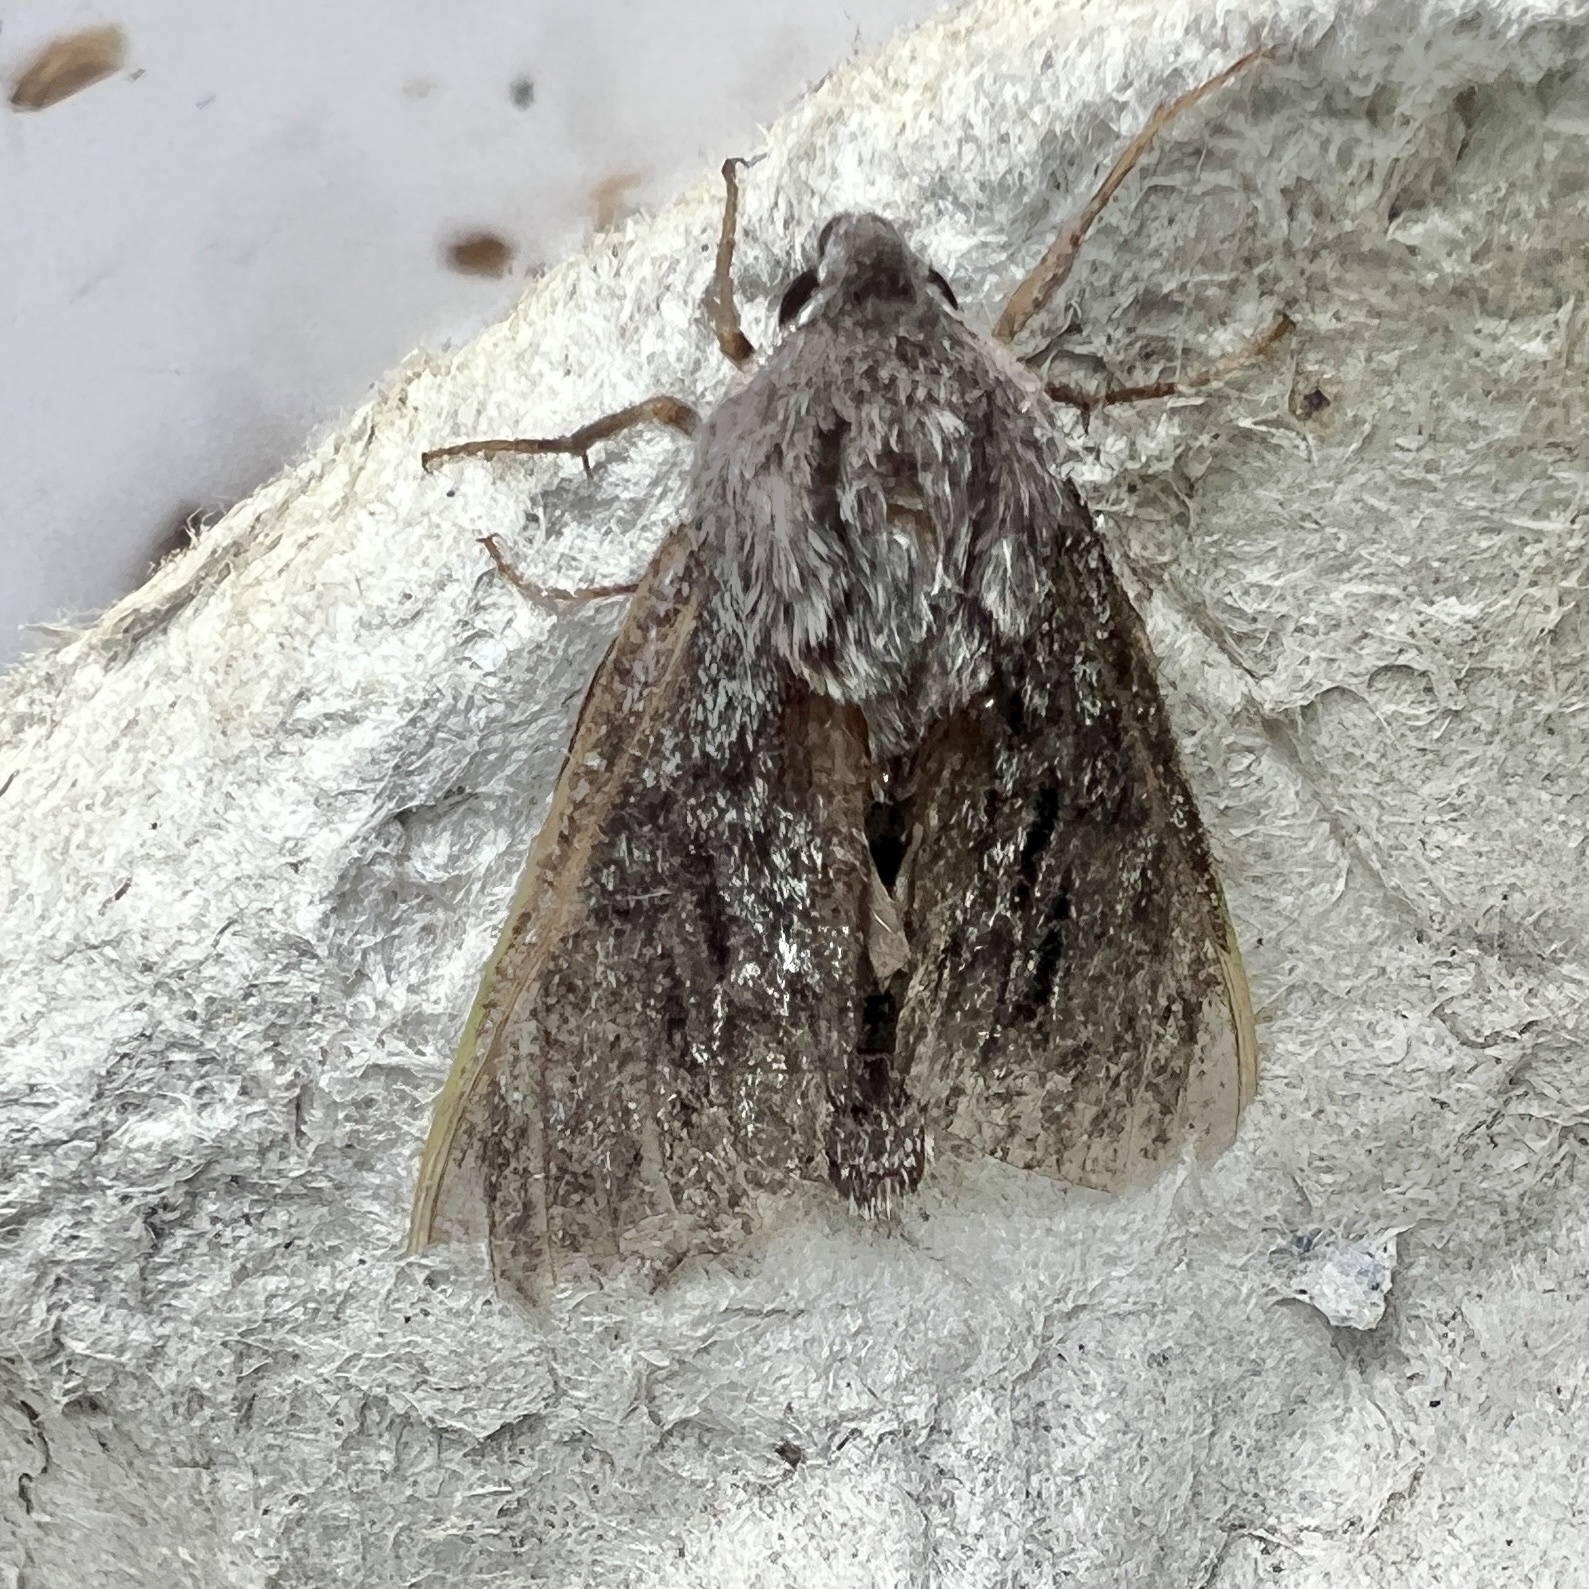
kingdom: Animalia
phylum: Arthropoda
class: Insecta
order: Lepidoptera
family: Sphingidae
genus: Lapara
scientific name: Lapara bombycoides
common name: Northern pine sphinx
